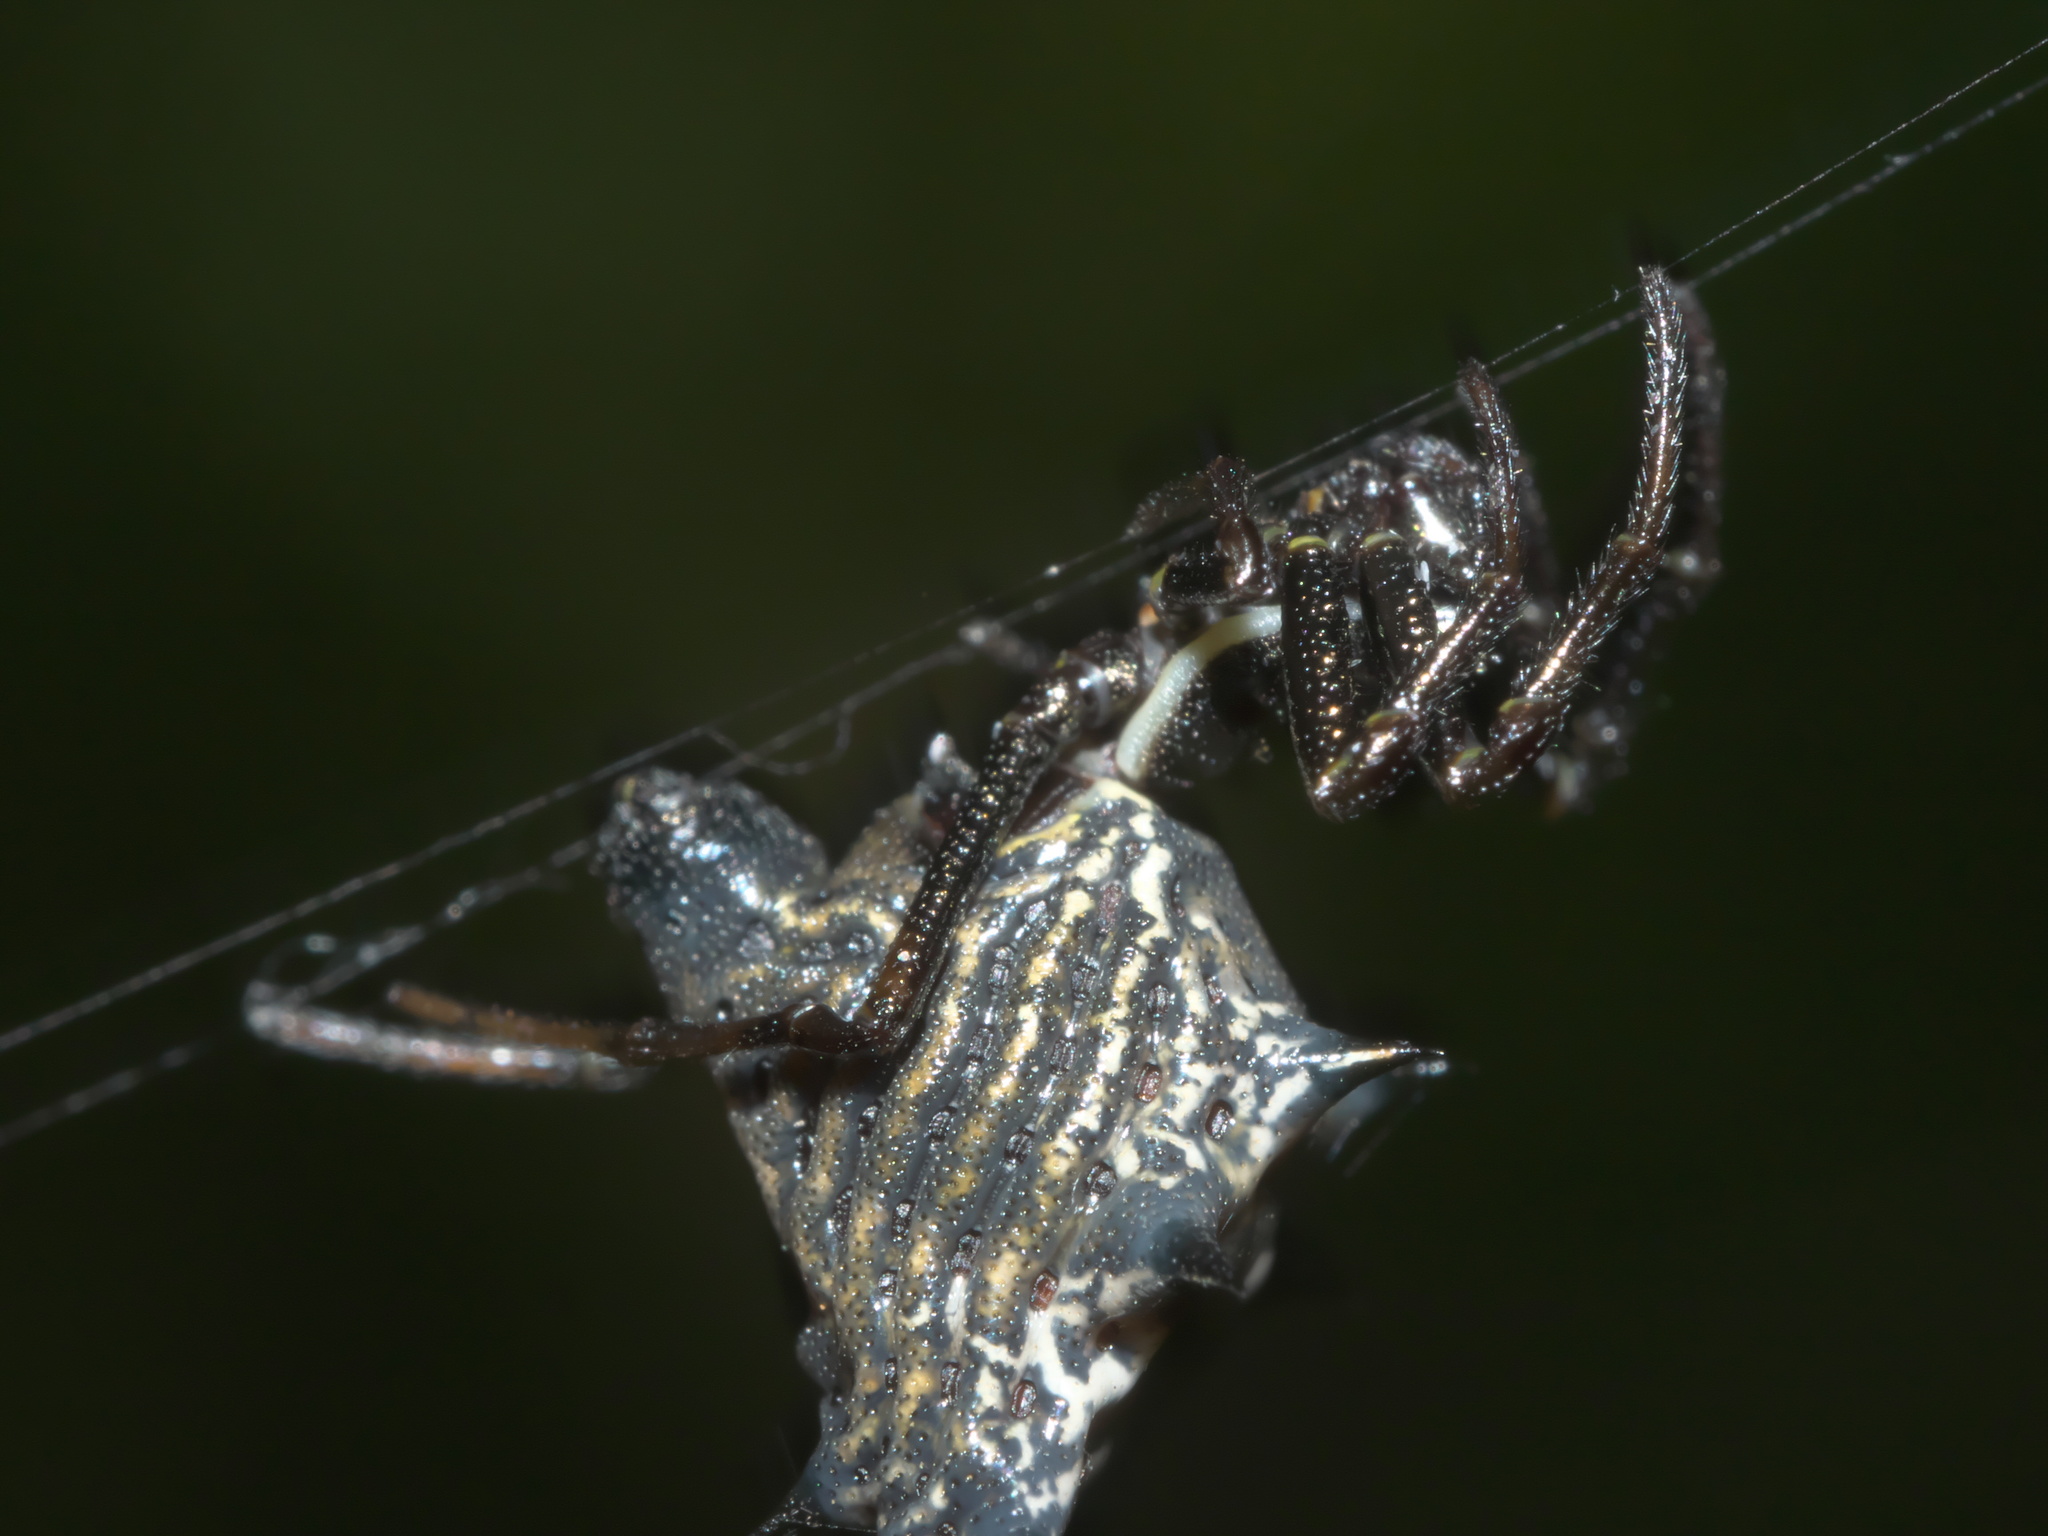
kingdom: Animalia
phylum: Arthropoda
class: Arachnida
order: Araneae
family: Araneidae
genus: Micrathena
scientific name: Micrathena gracilis
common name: Orb weavers
